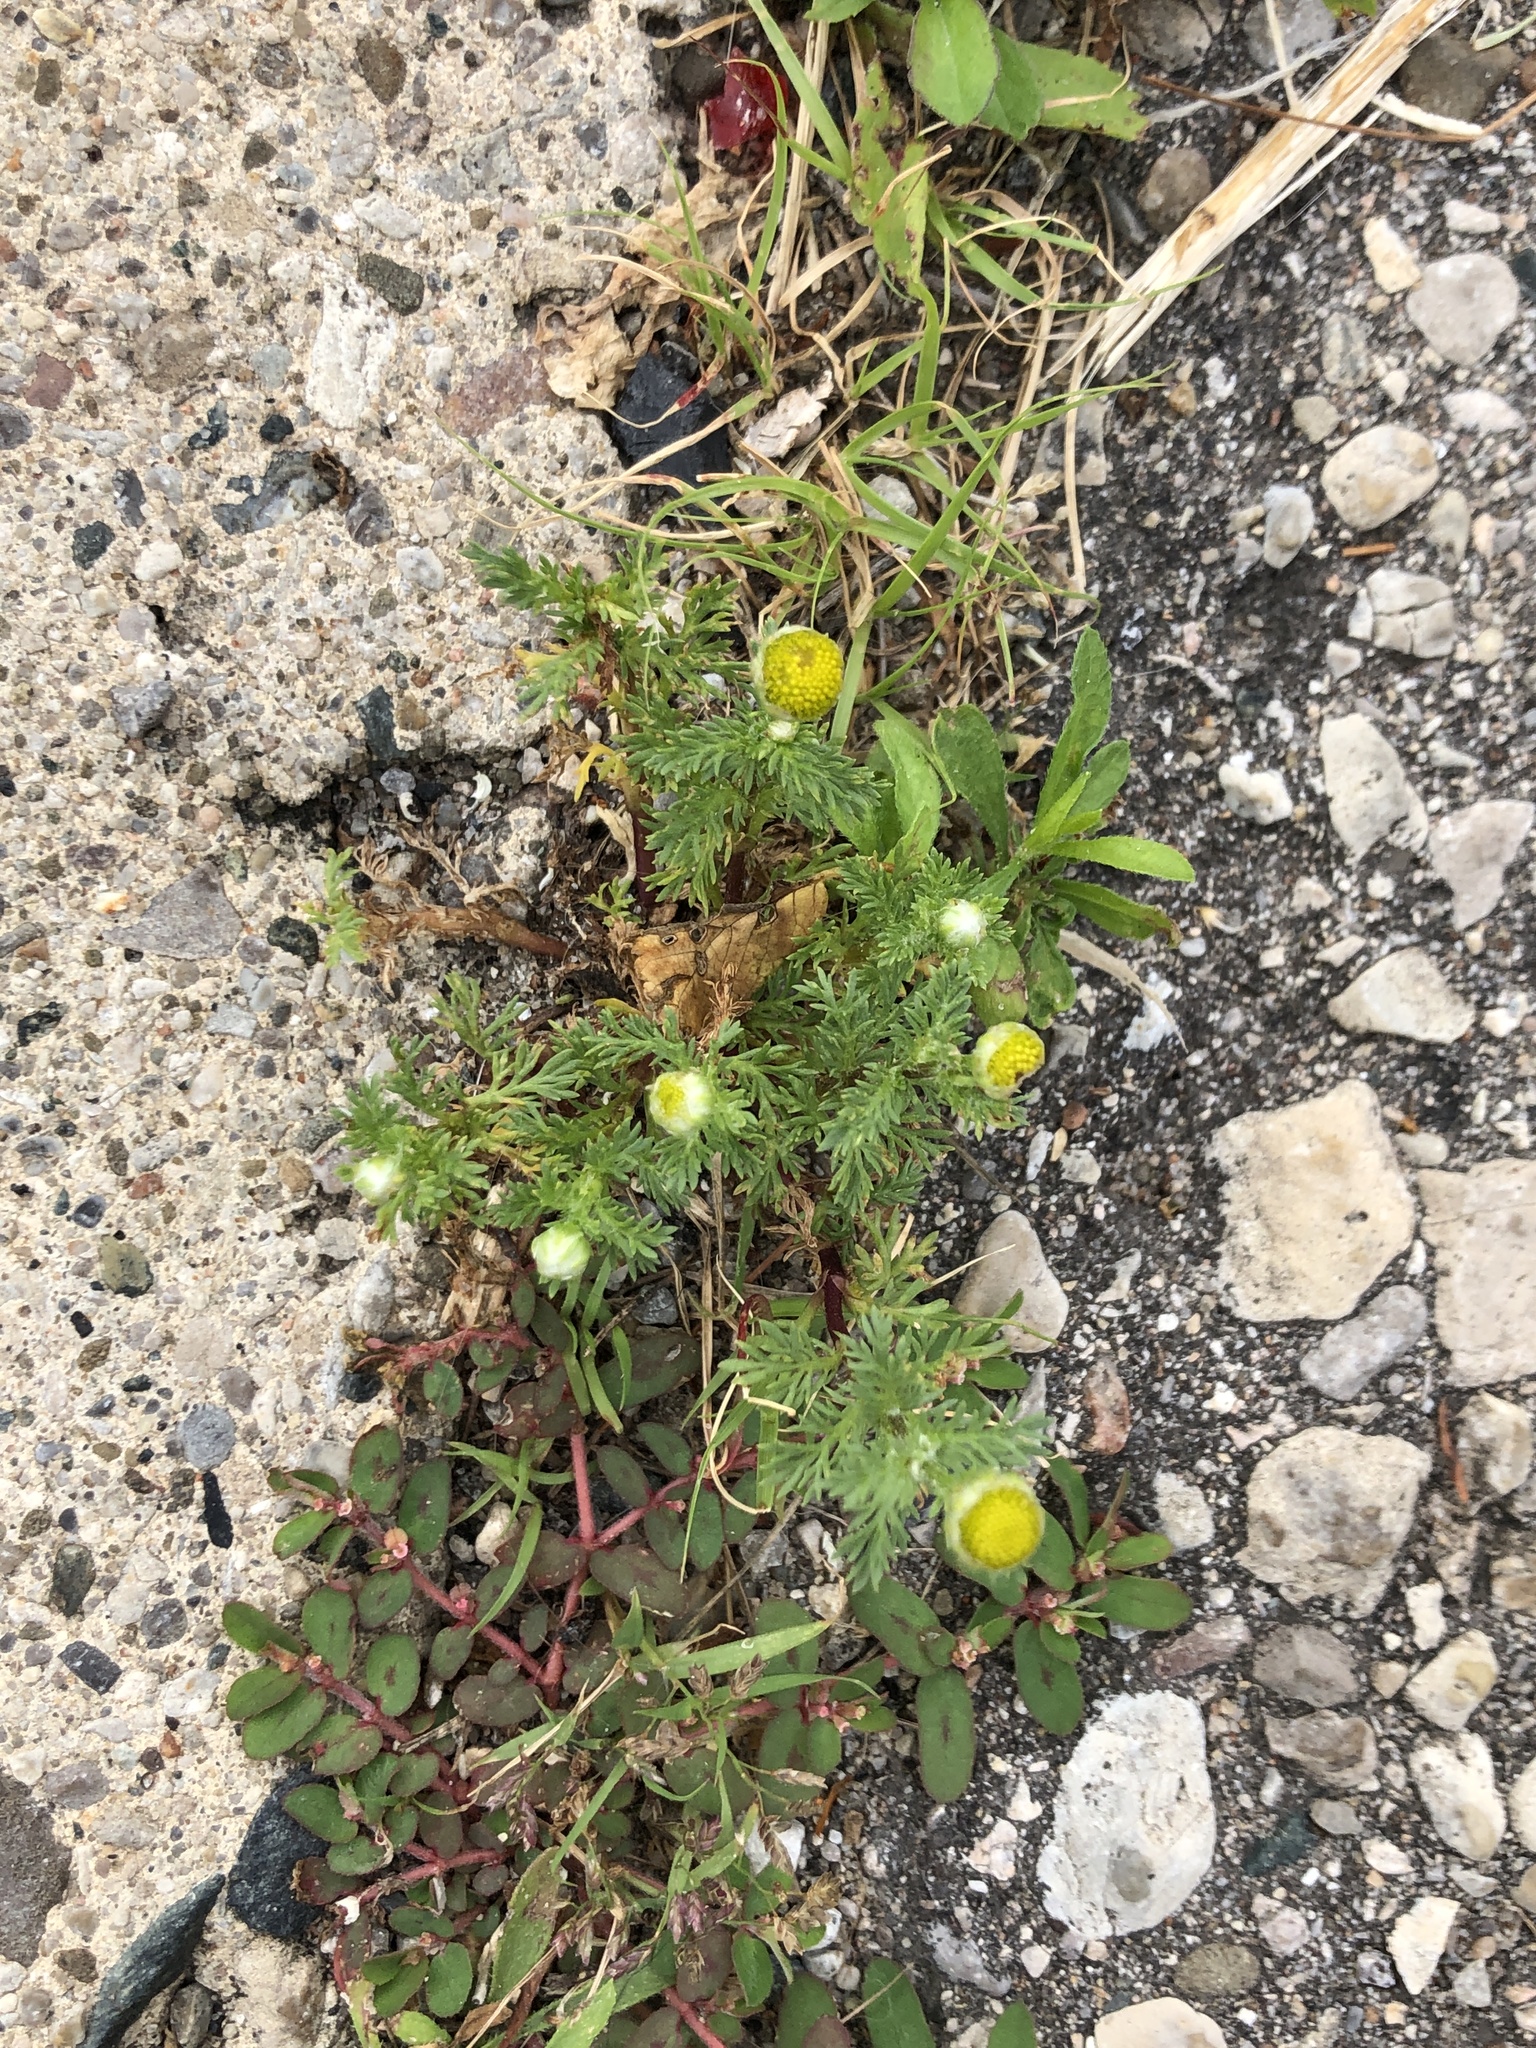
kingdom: Plantae
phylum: Tracheophyta
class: Magnoliopsida
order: Asterales
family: Asteraceae
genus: Matricaria
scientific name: Matricaria discoidea
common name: Disc mayweed
